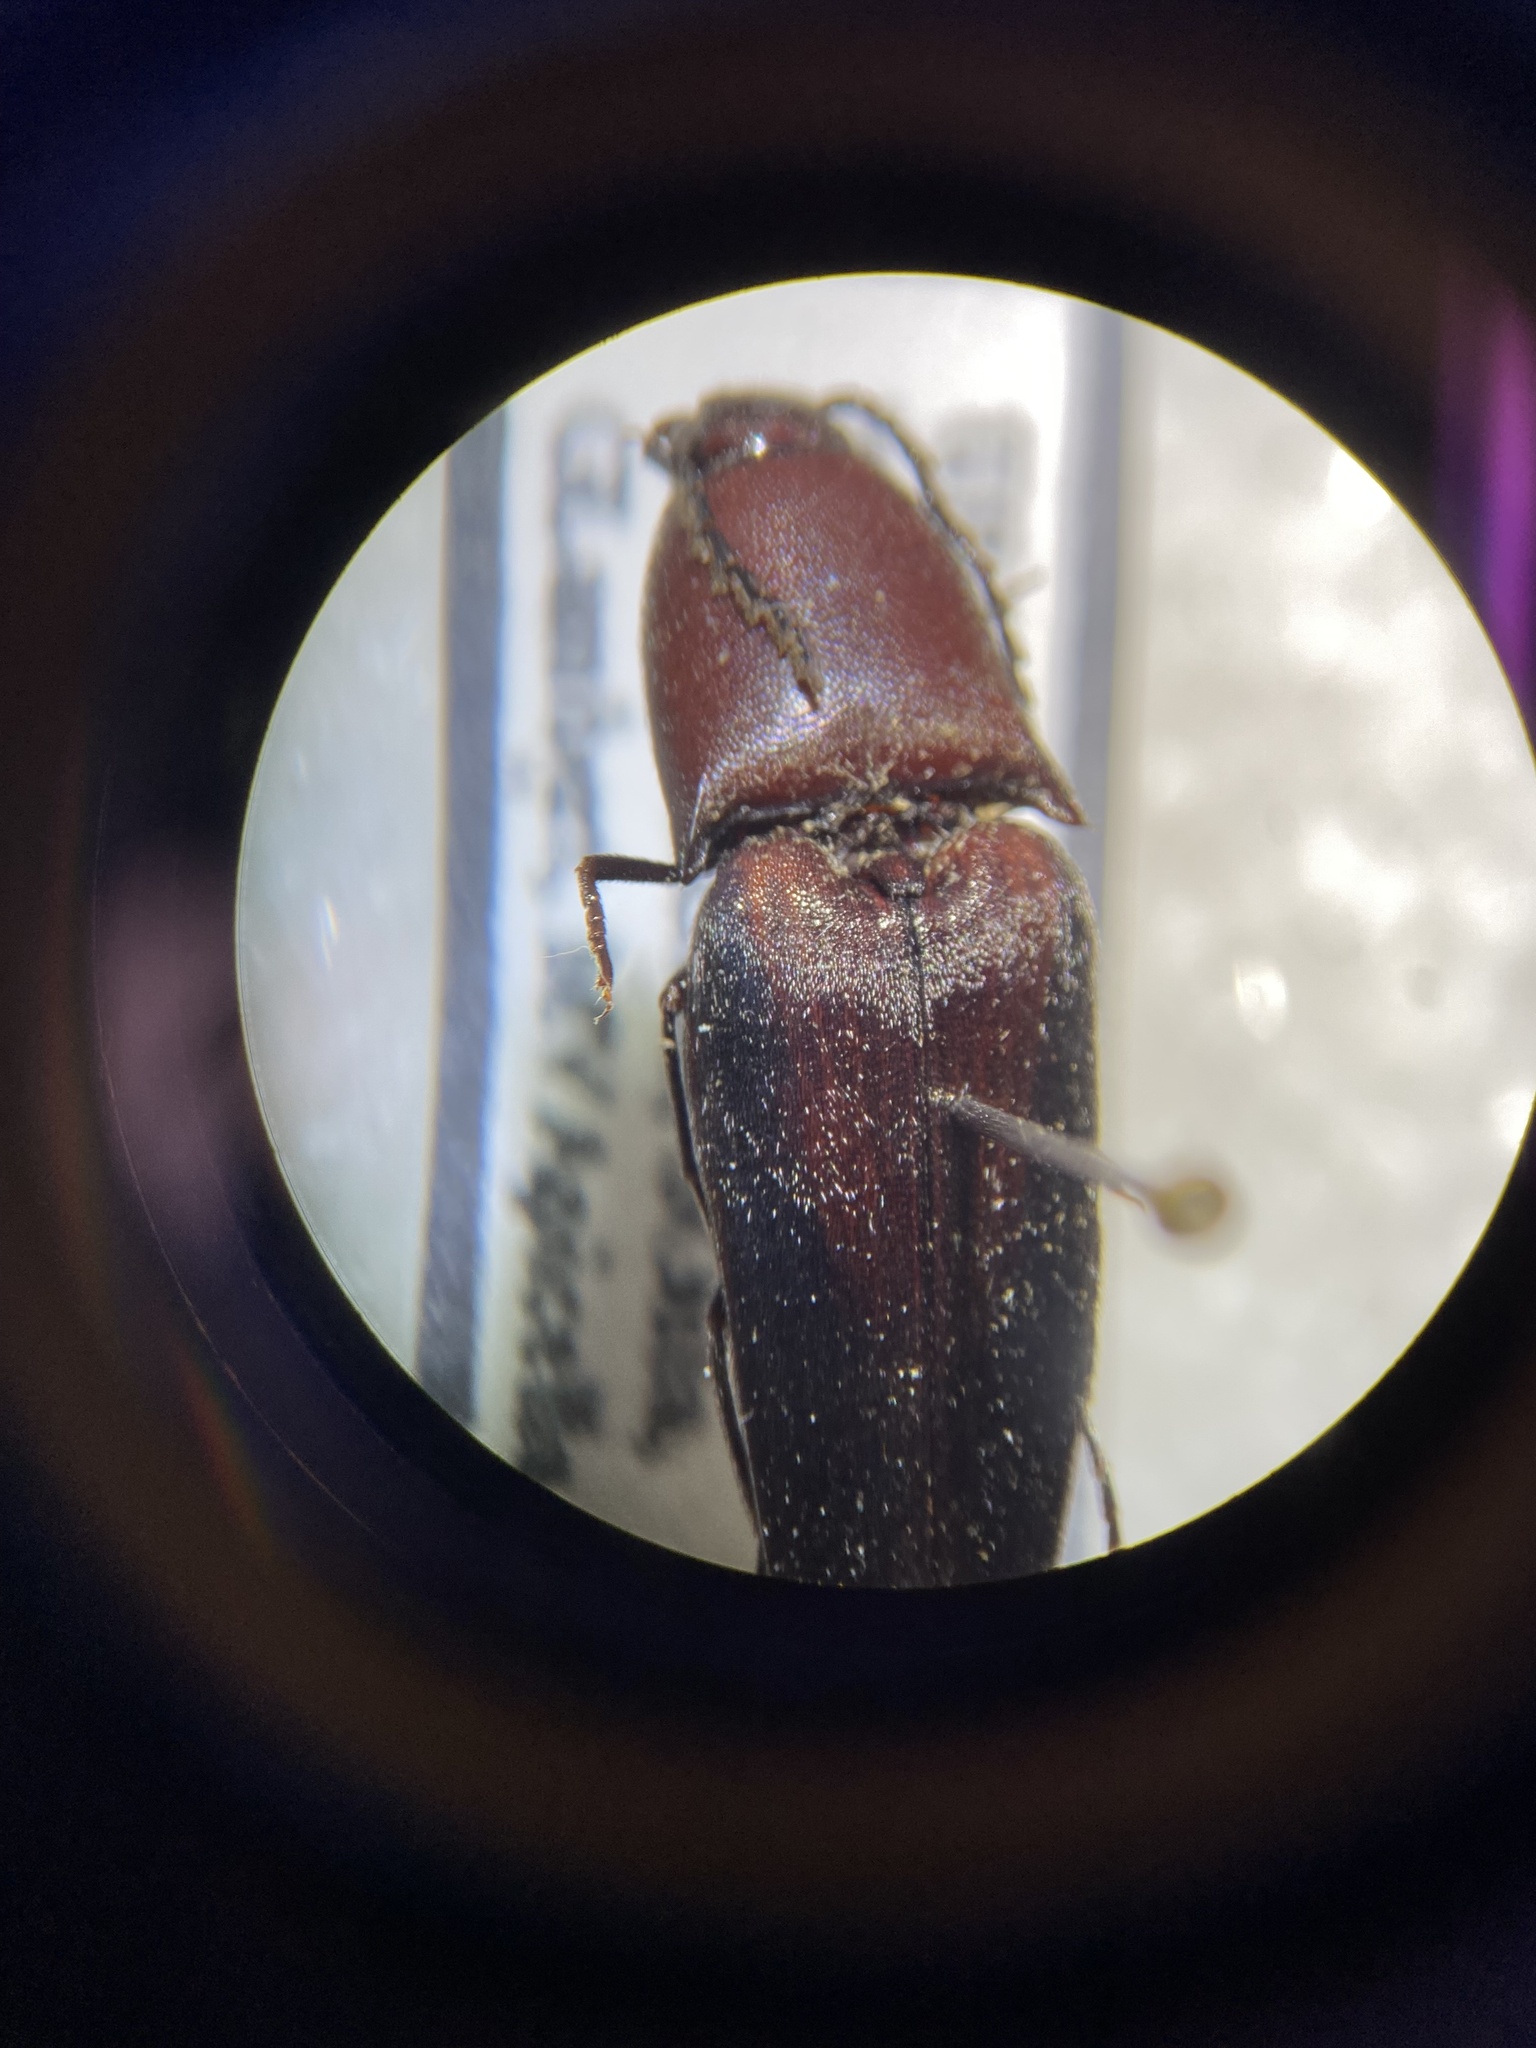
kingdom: Animalia
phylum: Arthropoda
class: Insecta
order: Coleoptera
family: Elateridae
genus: Parallelostethus
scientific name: Parallelostethus attenuatus
